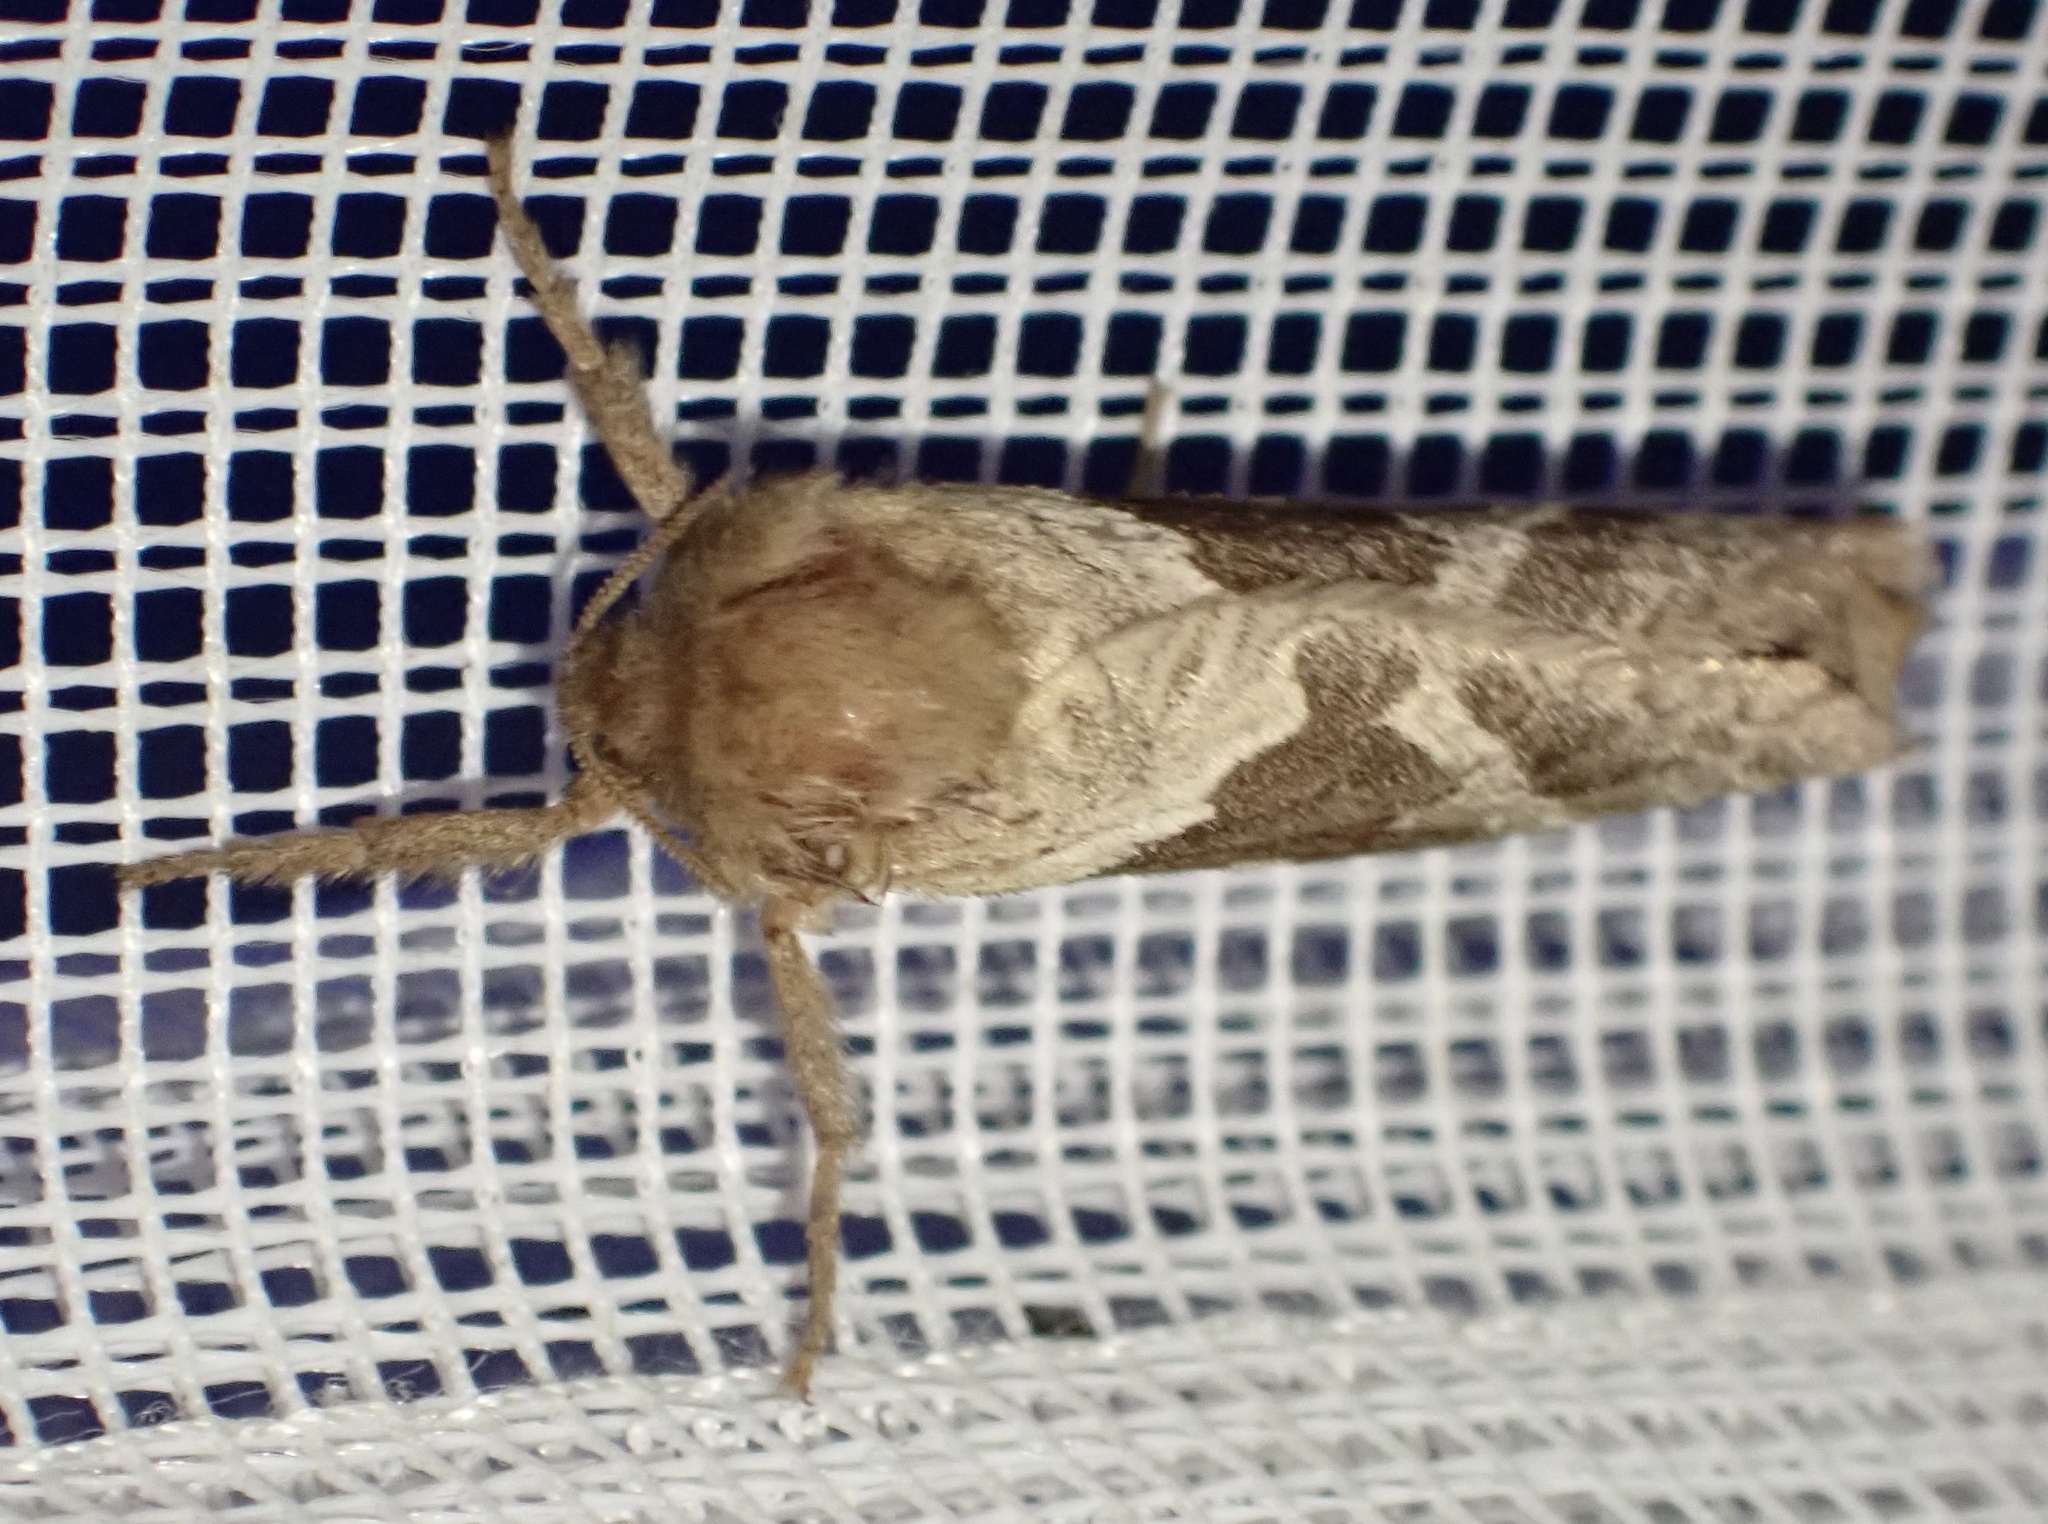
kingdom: Animalia
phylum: Arthropoda
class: Insecta
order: Lepidoptera
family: Hepialidae
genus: Triodia
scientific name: Triodia sylvina
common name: Orange swift
